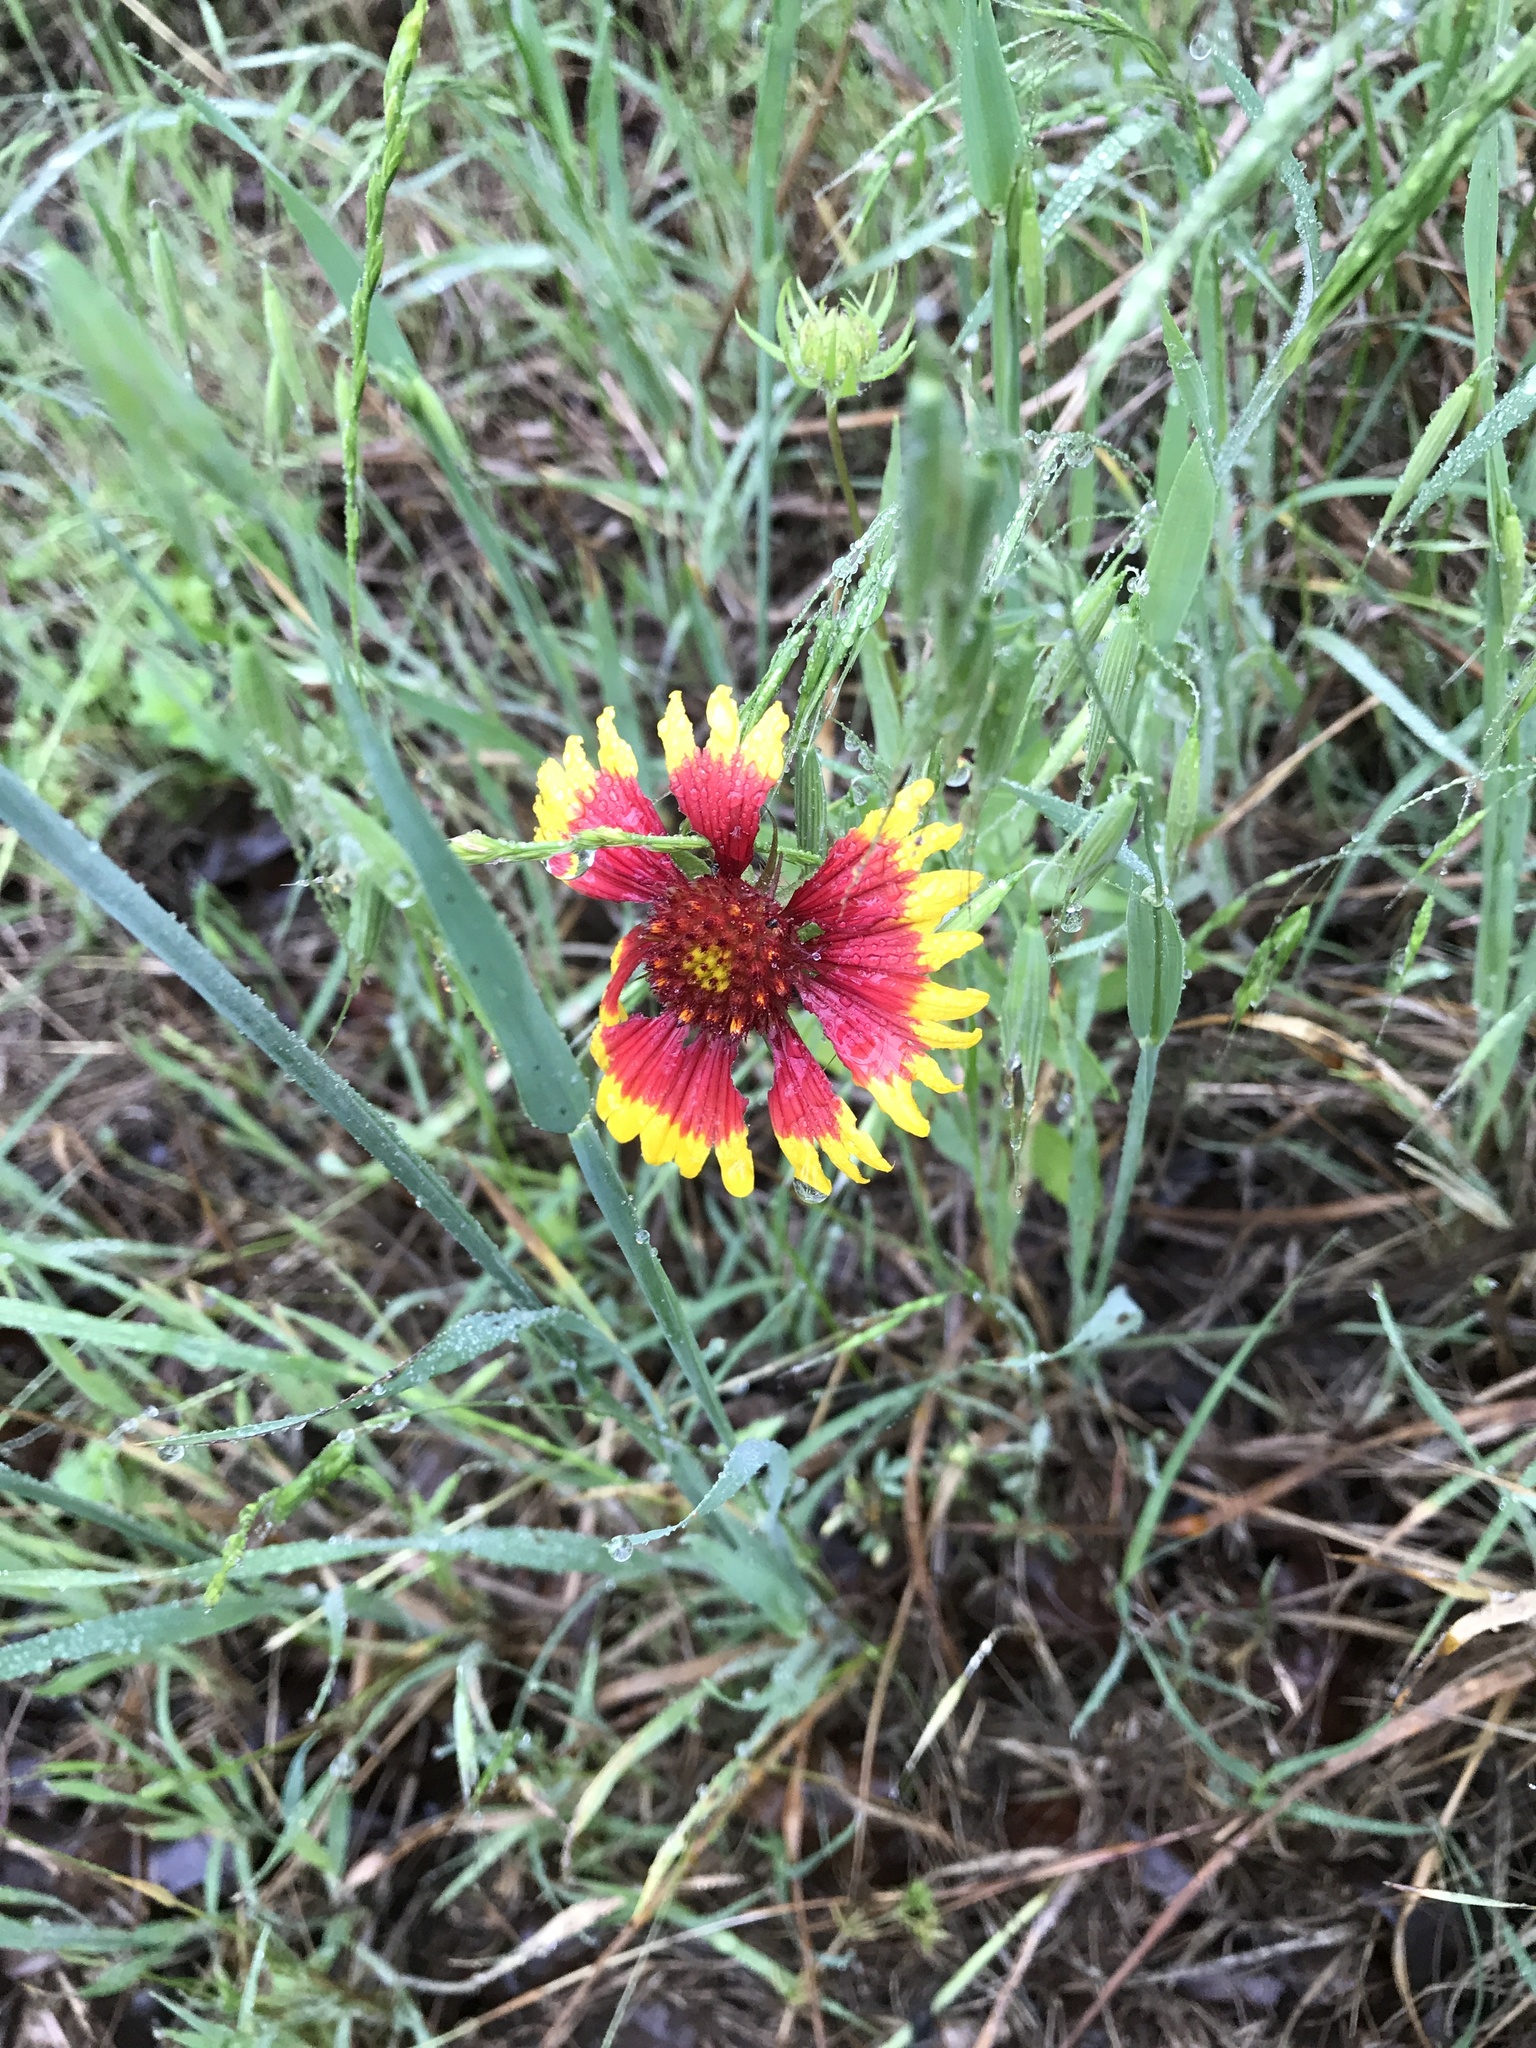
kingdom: Plantae
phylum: Tracheophyta
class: Magnoliopsida
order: Asterales
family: Asteraceae
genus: Gaillardia
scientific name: Gaillardia pulchella
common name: Firewheel
